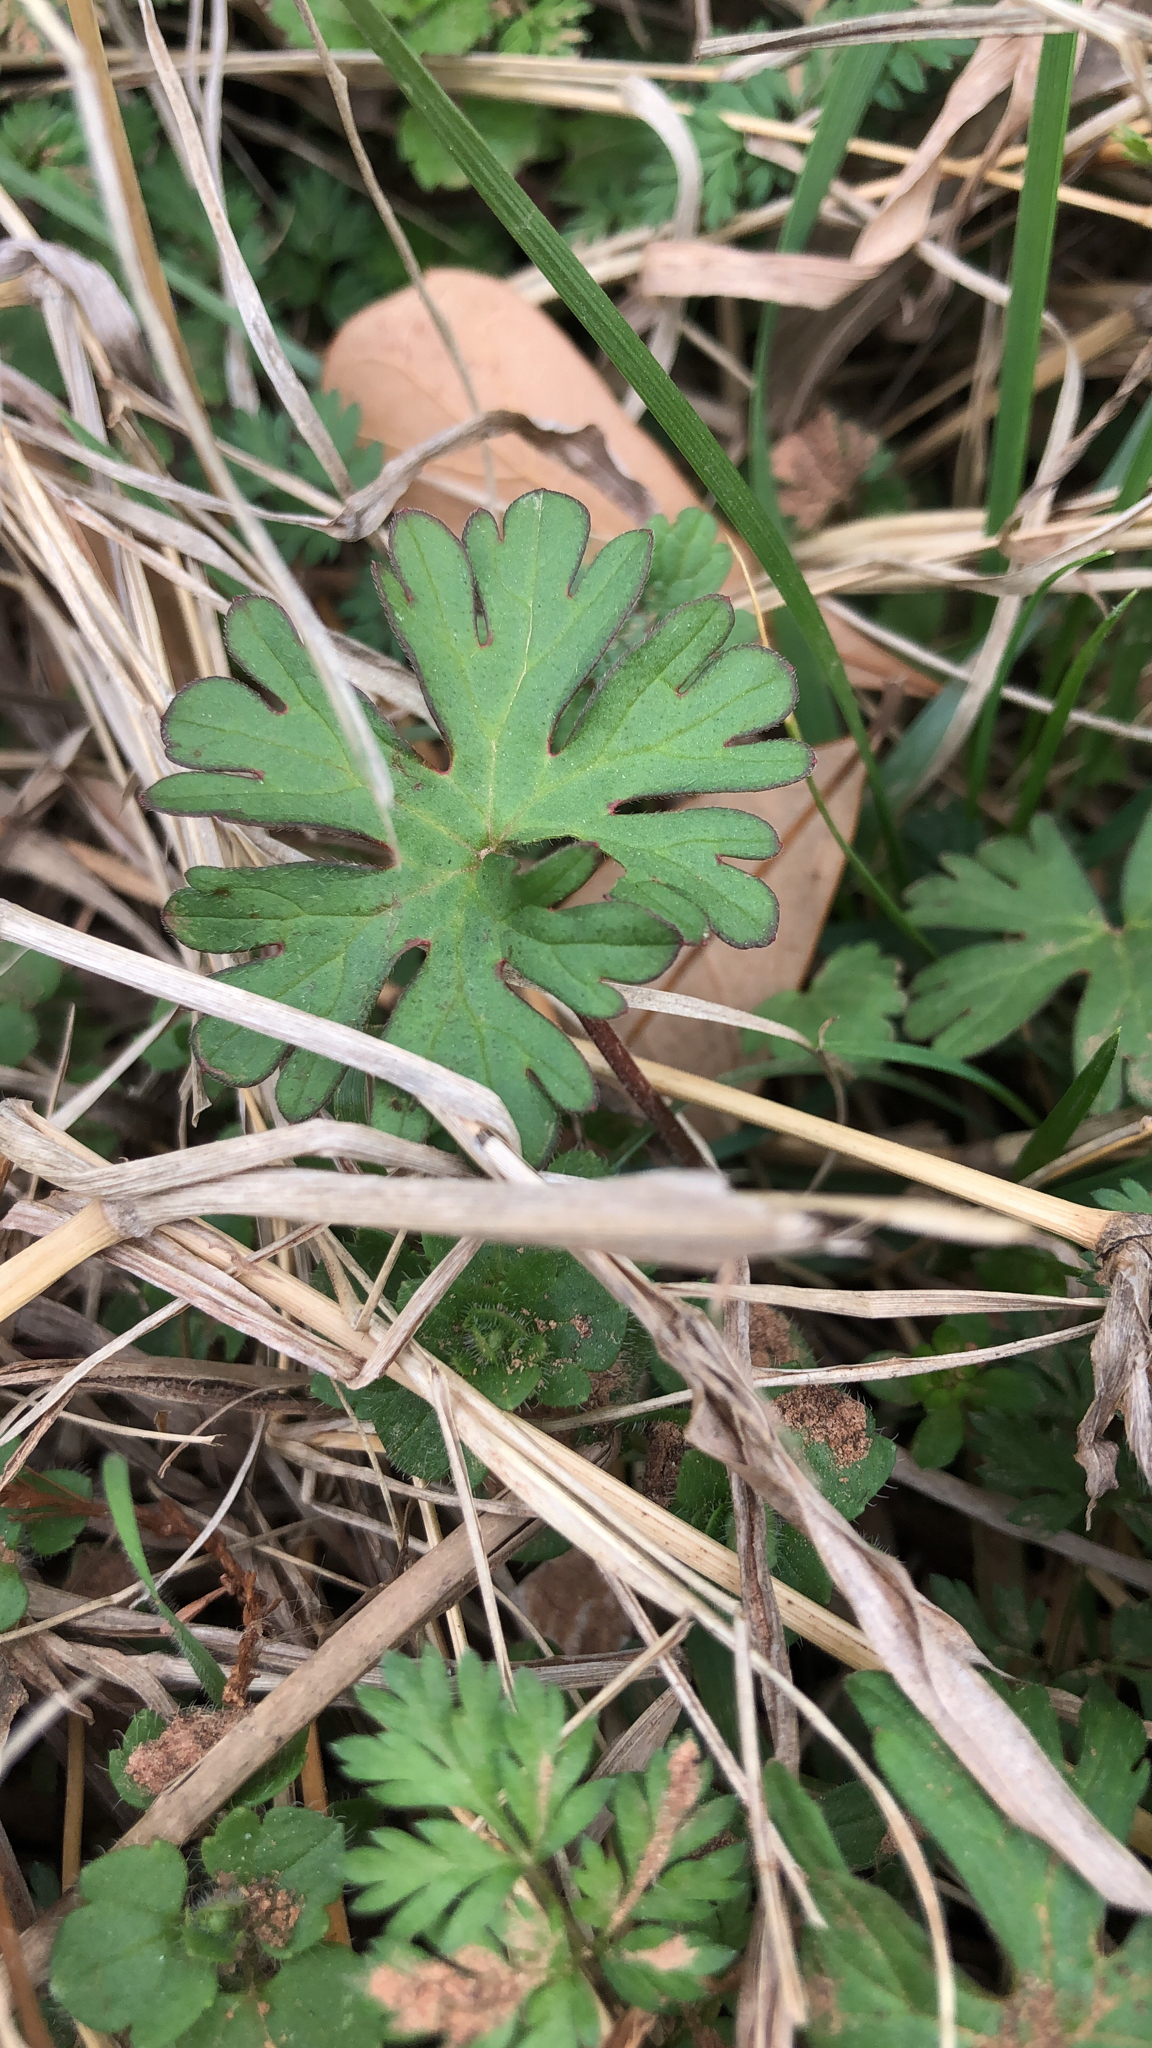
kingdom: Plantae
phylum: Tracheophyta
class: Magnoliopsida
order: Geraniales
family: Geraniaceae
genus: Geranium
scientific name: Geranium carolinianum
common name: Carolina crane's-bill
